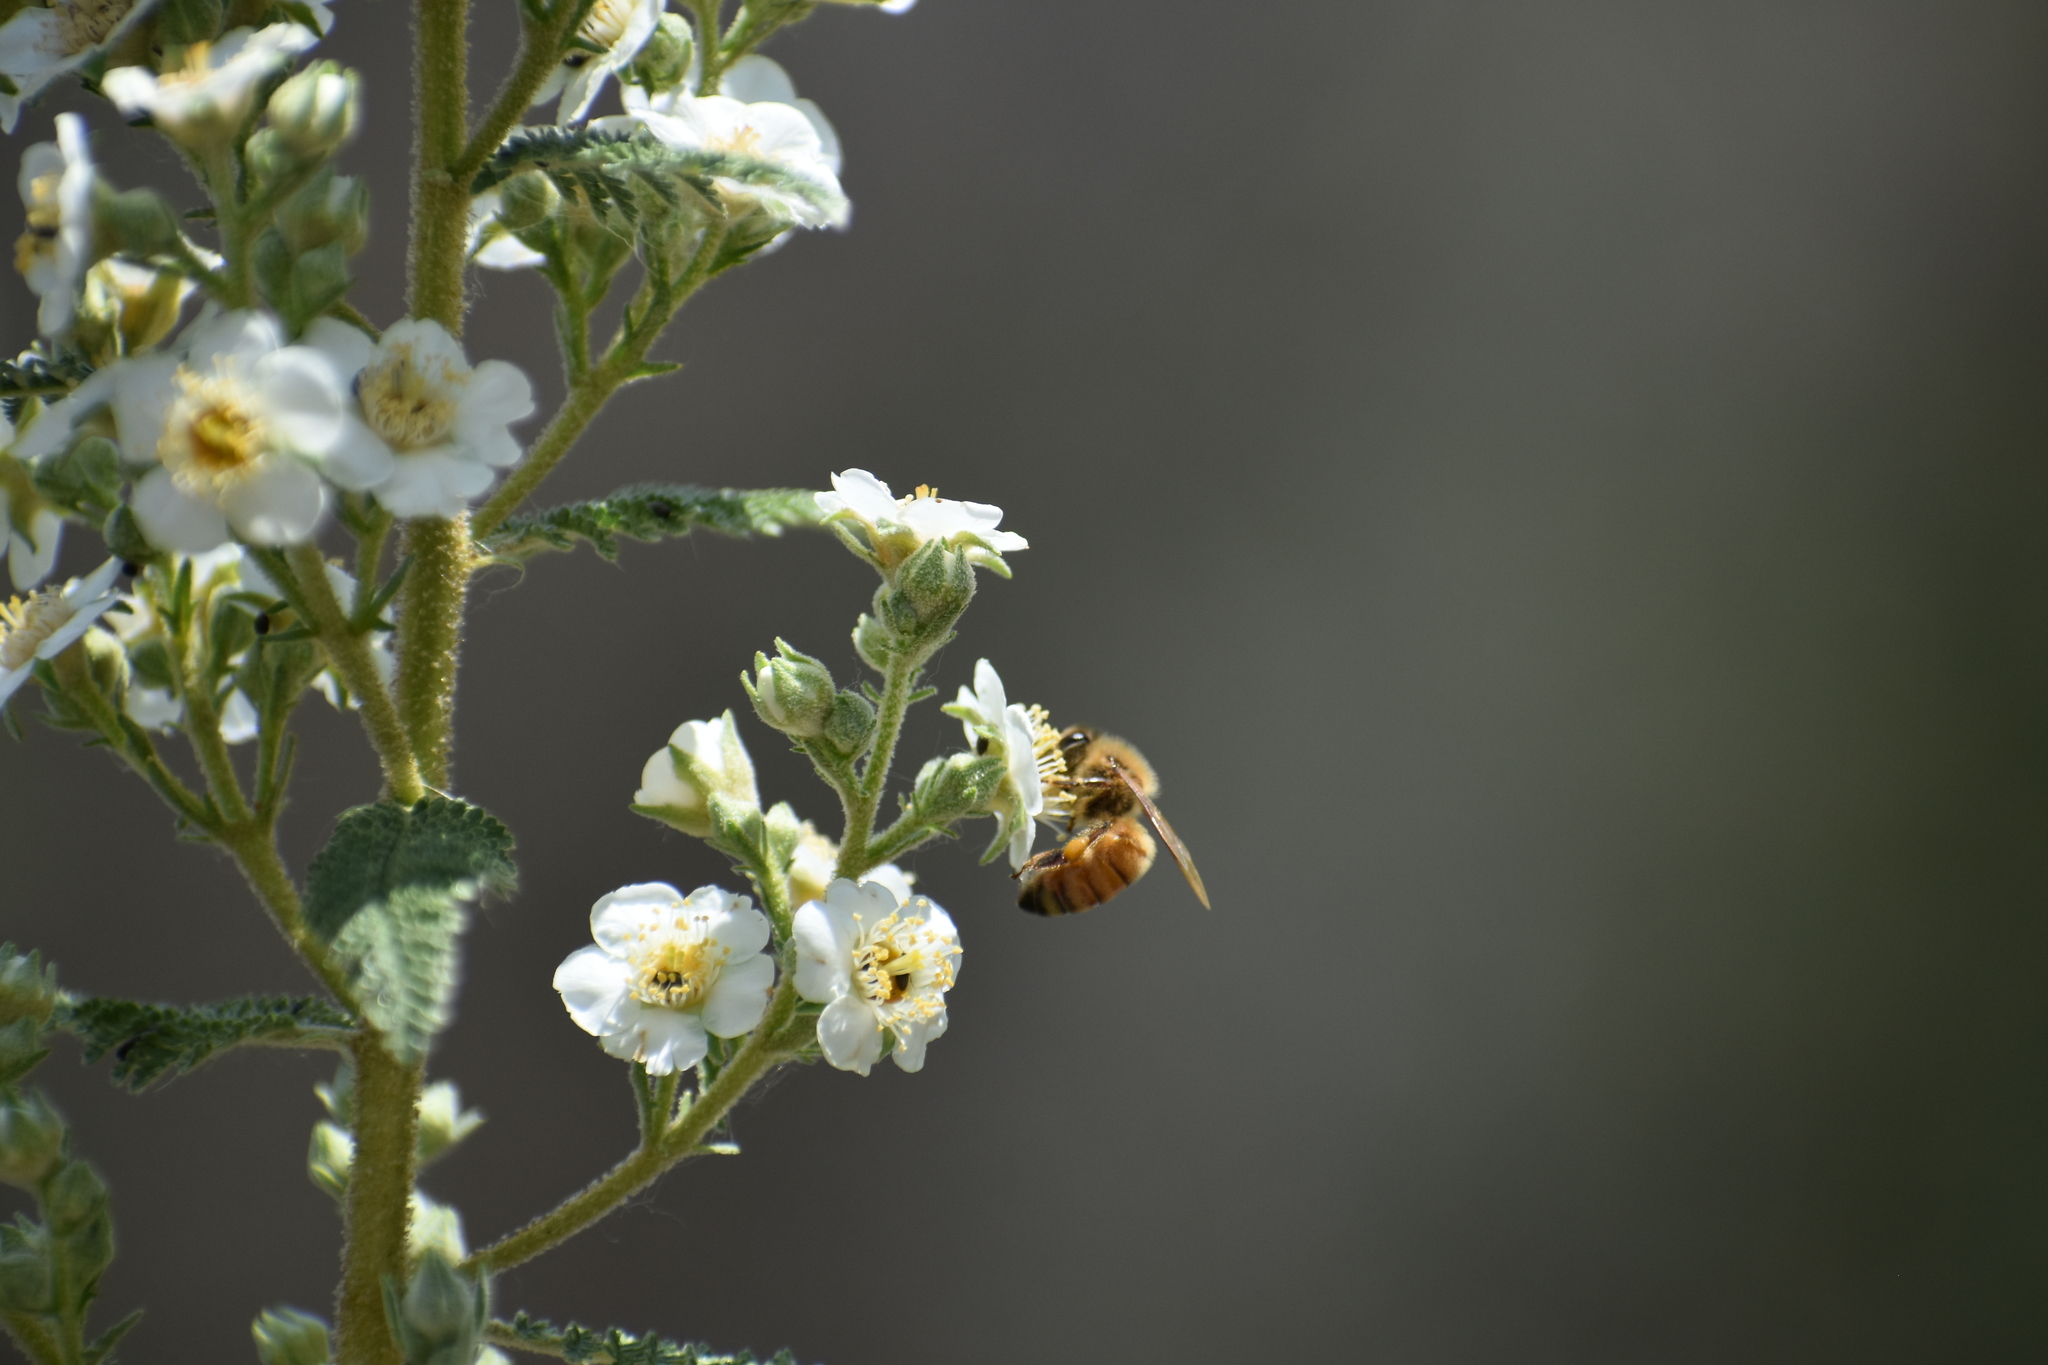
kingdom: Animalia
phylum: Arthropoda
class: Insecta
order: Hymenoptera
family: Apidae
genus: Apis
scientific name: Apis mellifera
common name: Honey bee
